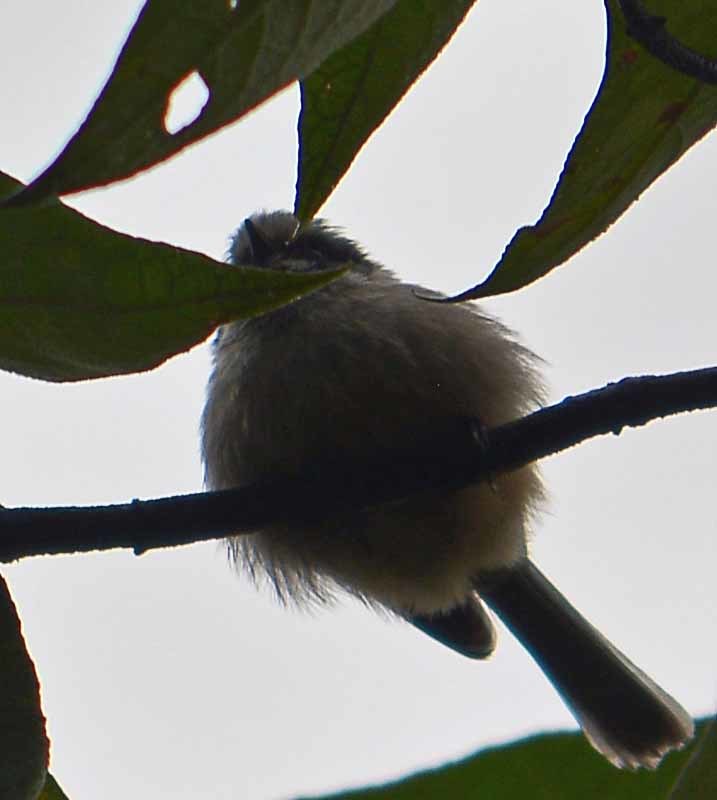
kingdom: Animalia
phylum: Chordata
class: Aves
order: Passeriformes
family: Aegithalidae
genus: Psaltriparus
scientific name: Psaltriparus minimus
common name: American bushtit
